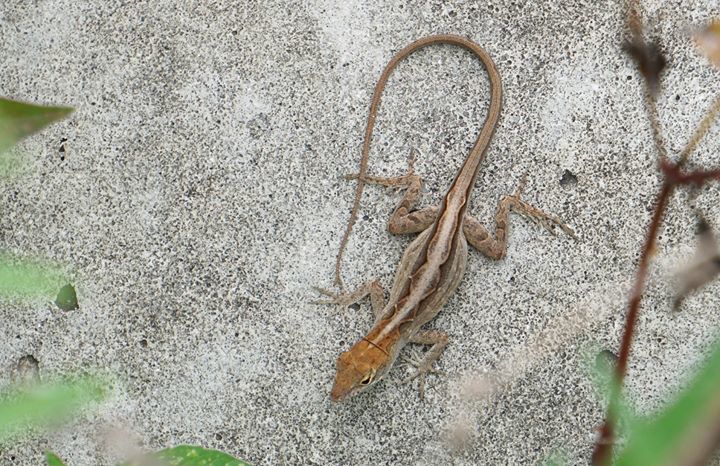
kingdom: Animalia
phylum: Chordata
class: Squamata
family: Dactyloidae
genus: Anolis
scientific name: Anolis sagrei
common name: Brown anole
